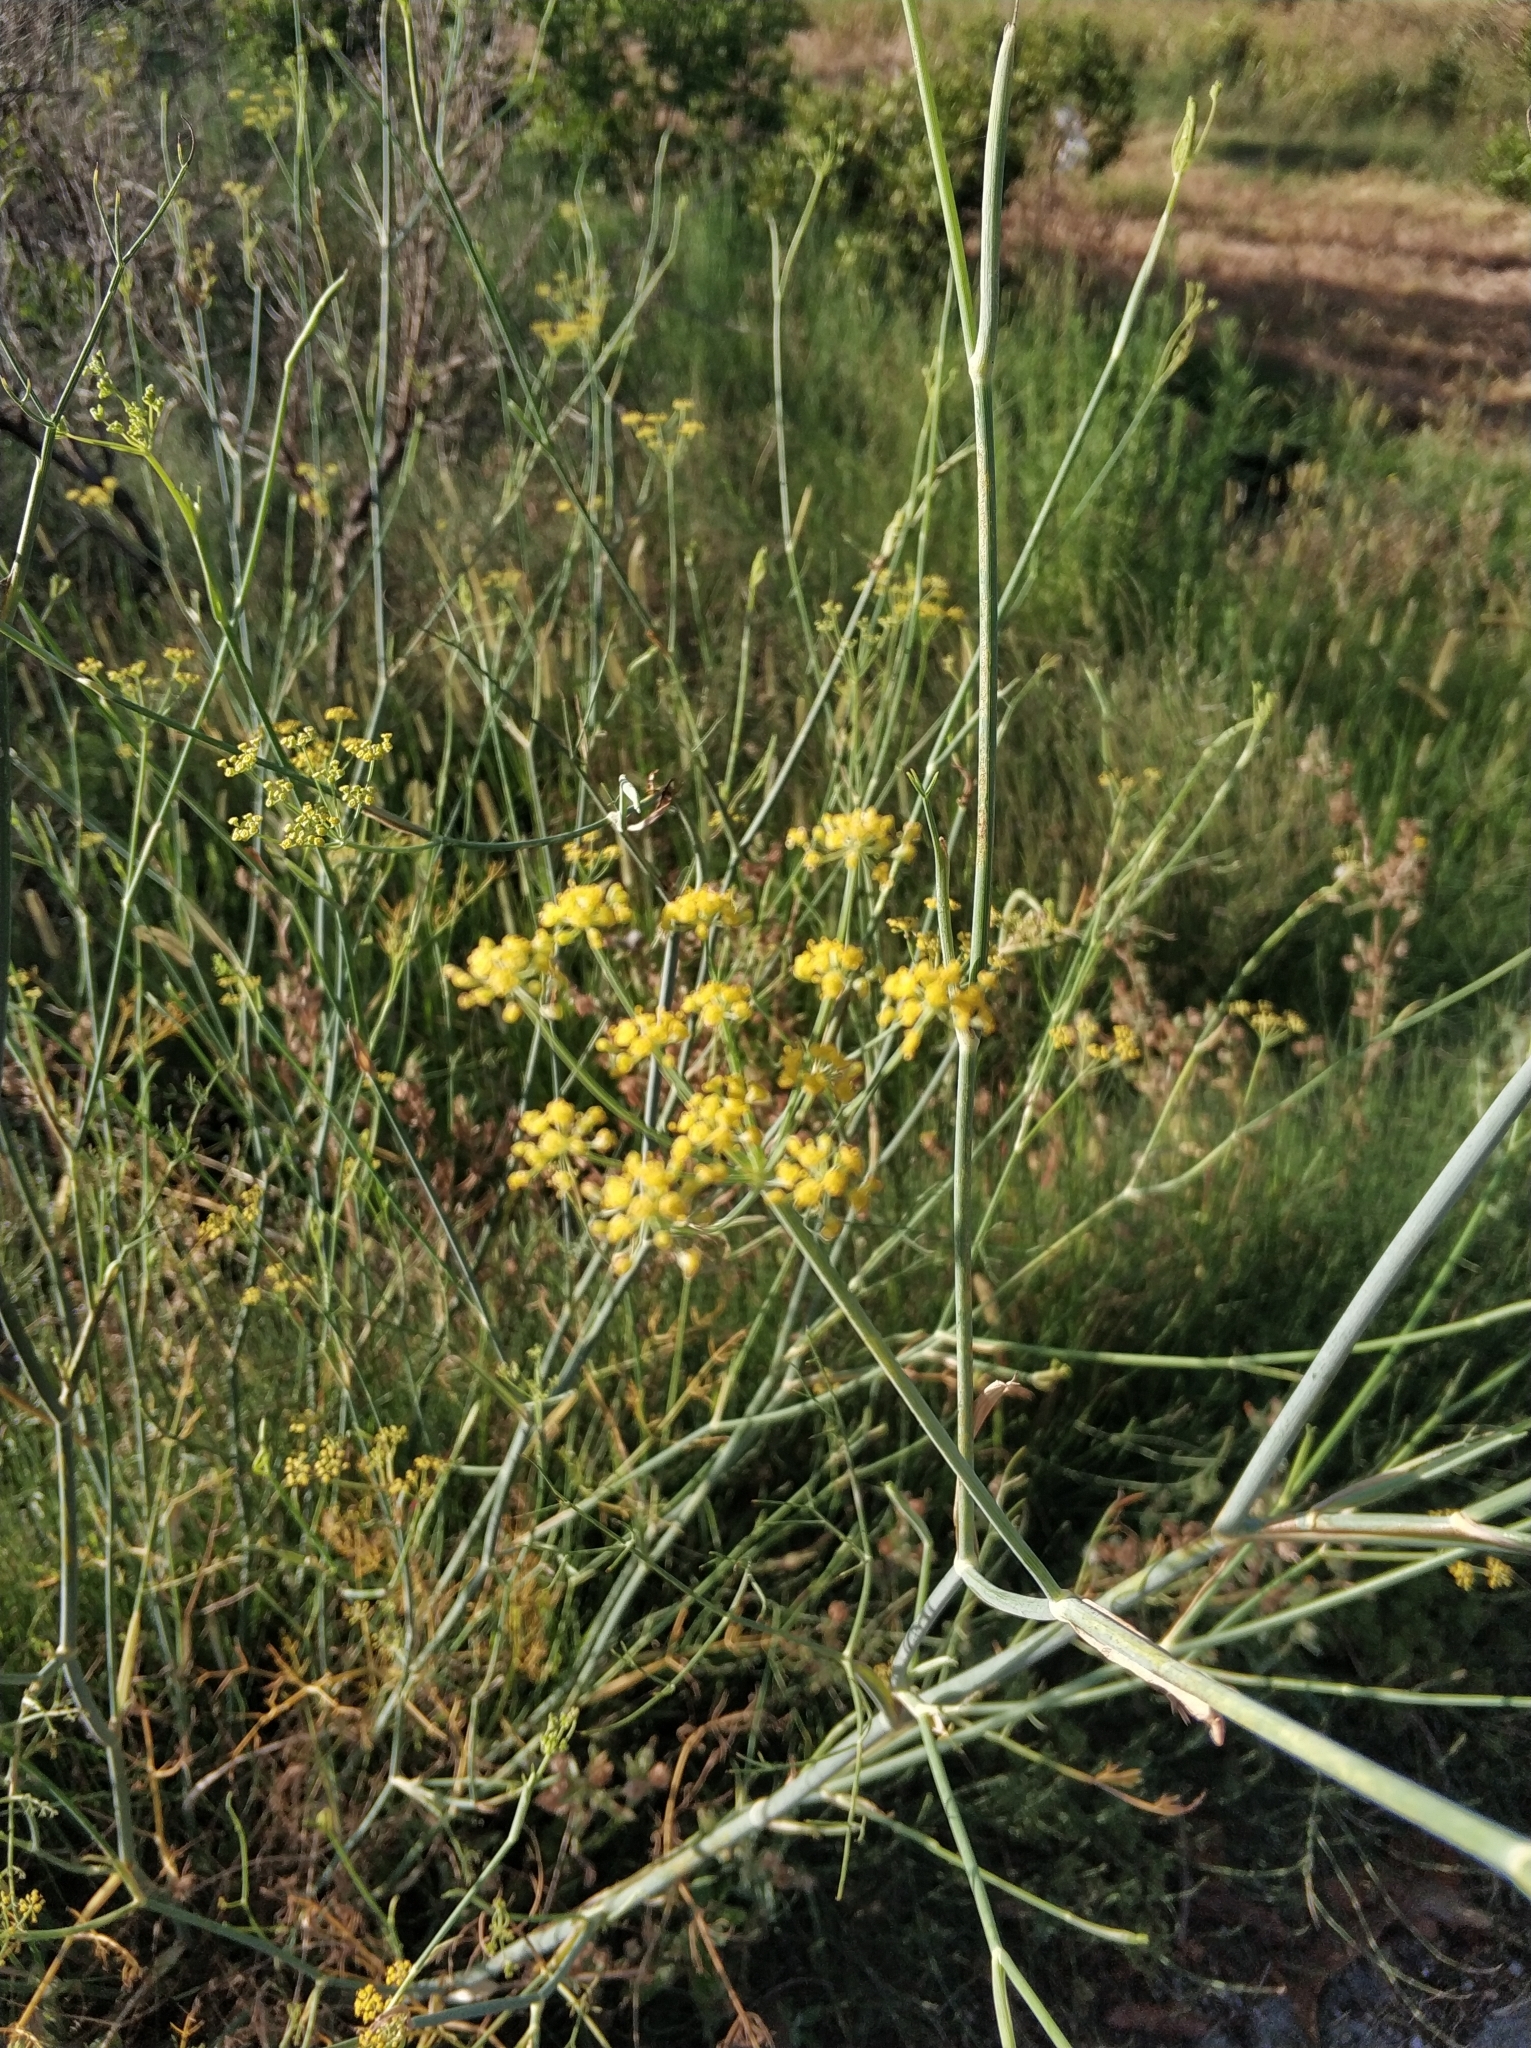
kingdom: Plantae
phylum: Tracheophyta
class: Magnoliopsida
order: Apiales
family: Apiaceae
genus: Foeniculum
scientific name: Foeniculum vulgare
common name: Fennel
